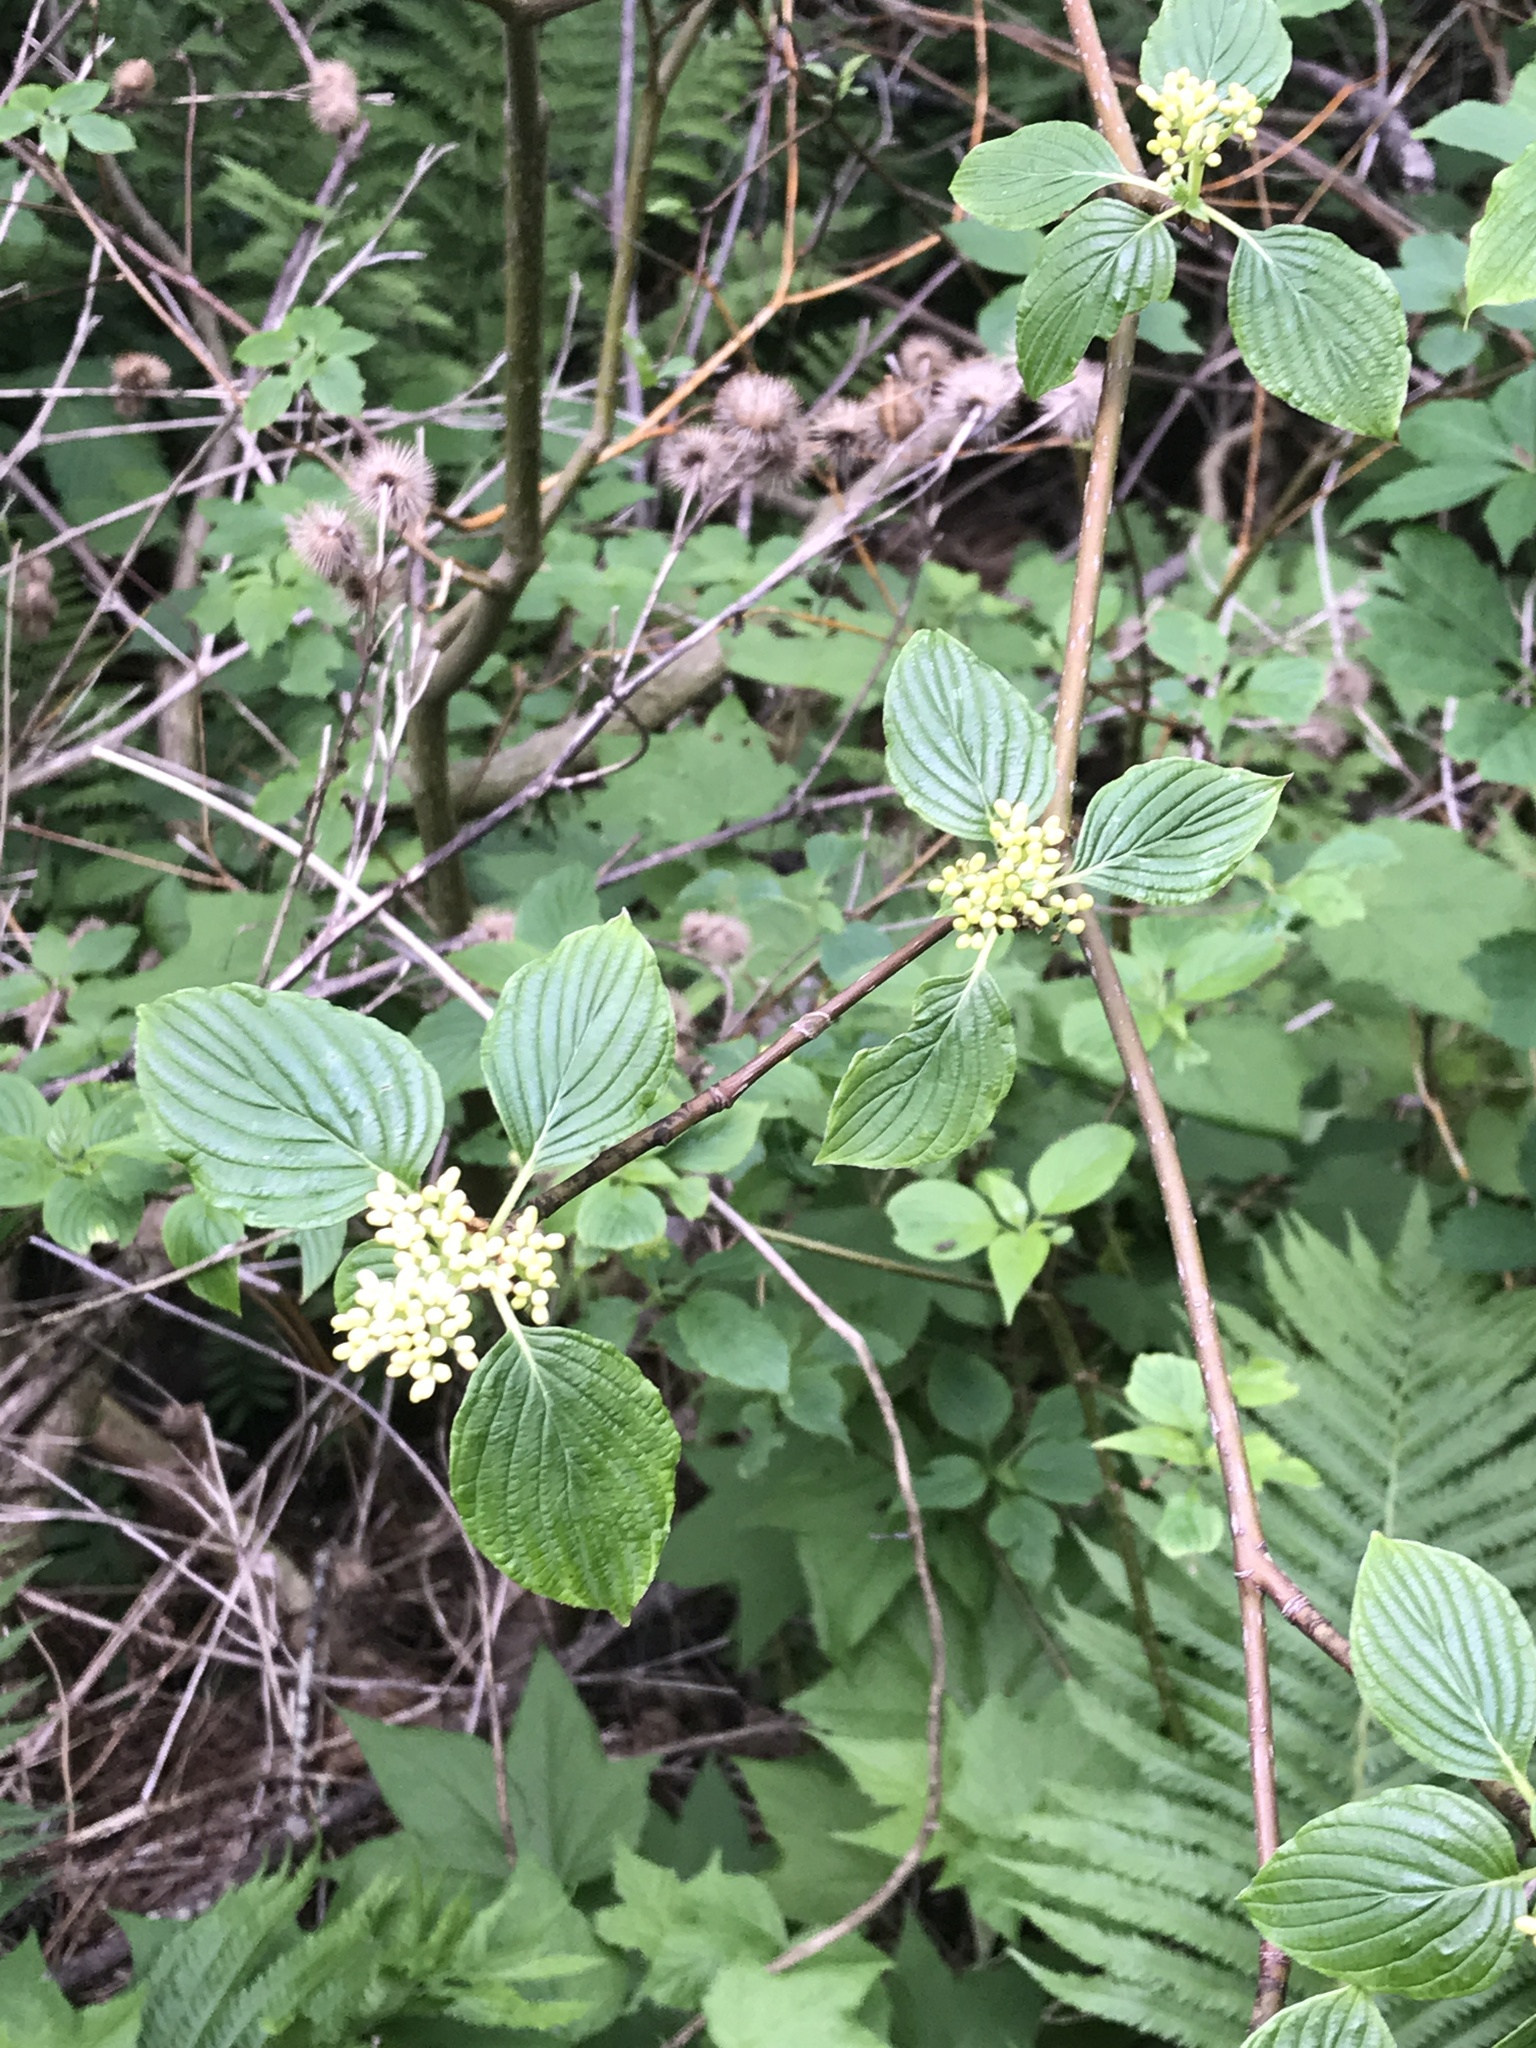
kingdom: Plantae
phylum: Tracheophyta
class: Magnoliopsida
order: Cornales
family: Cornaceae
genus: Cornus
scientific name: Cornus alternifolia
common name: Pagoda dogwood
